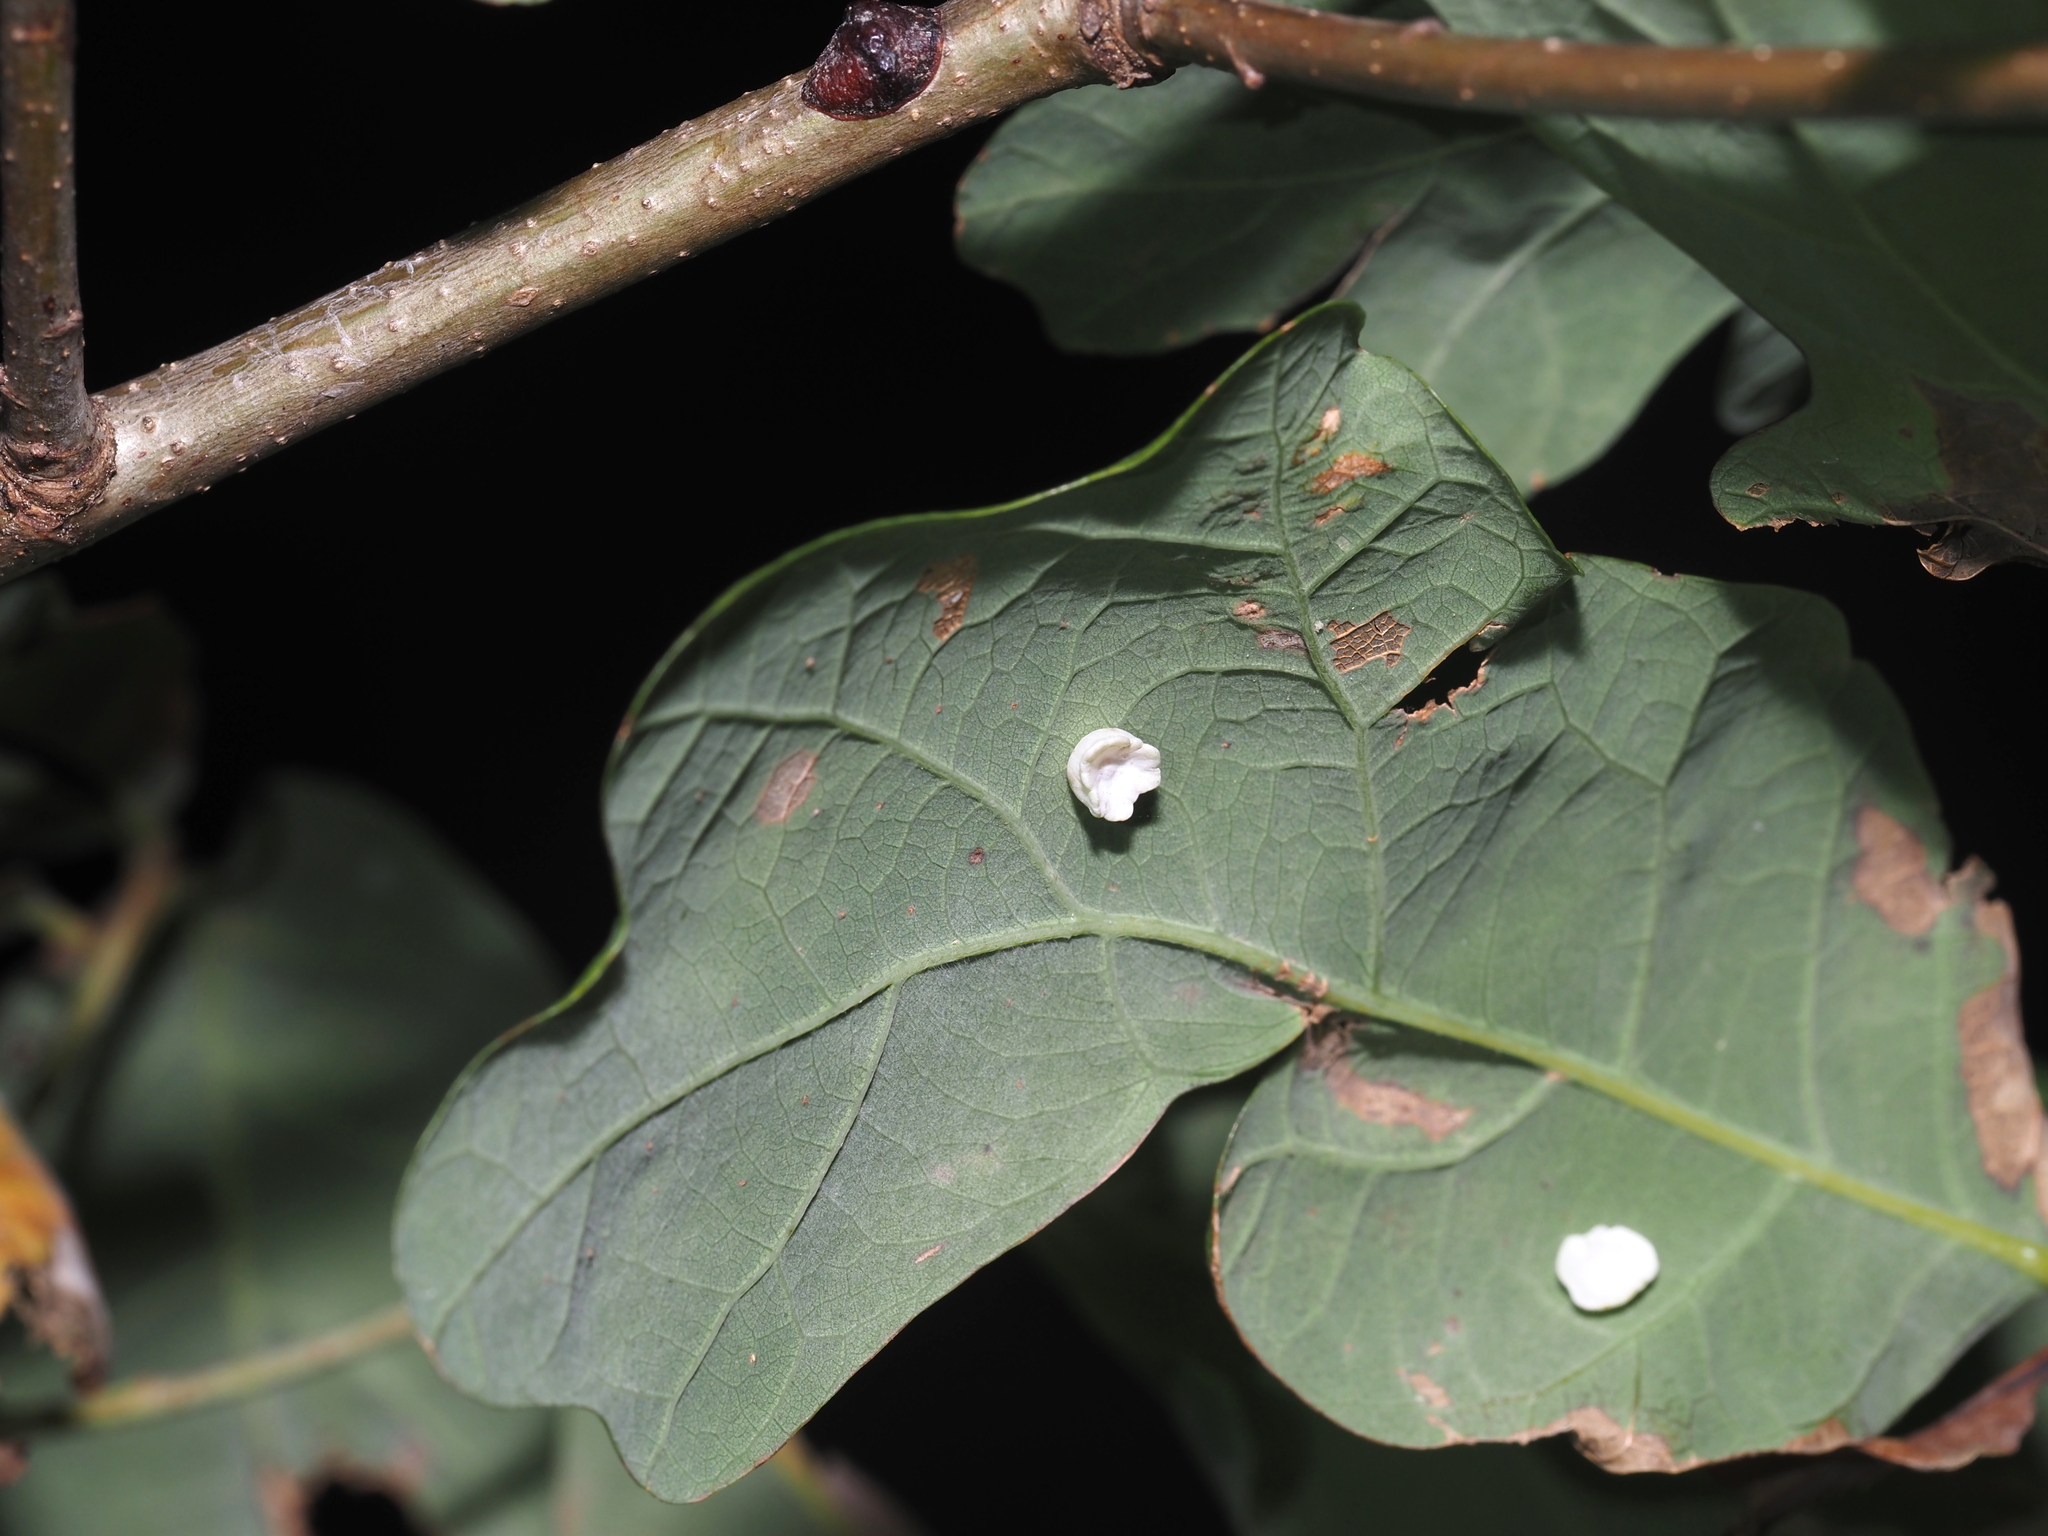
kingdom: Animalia
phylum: Arthropoda
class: Insecta
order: Hymenoptera
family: Cynipidae
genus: Phylloteras
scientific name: Phylloteras poculum
